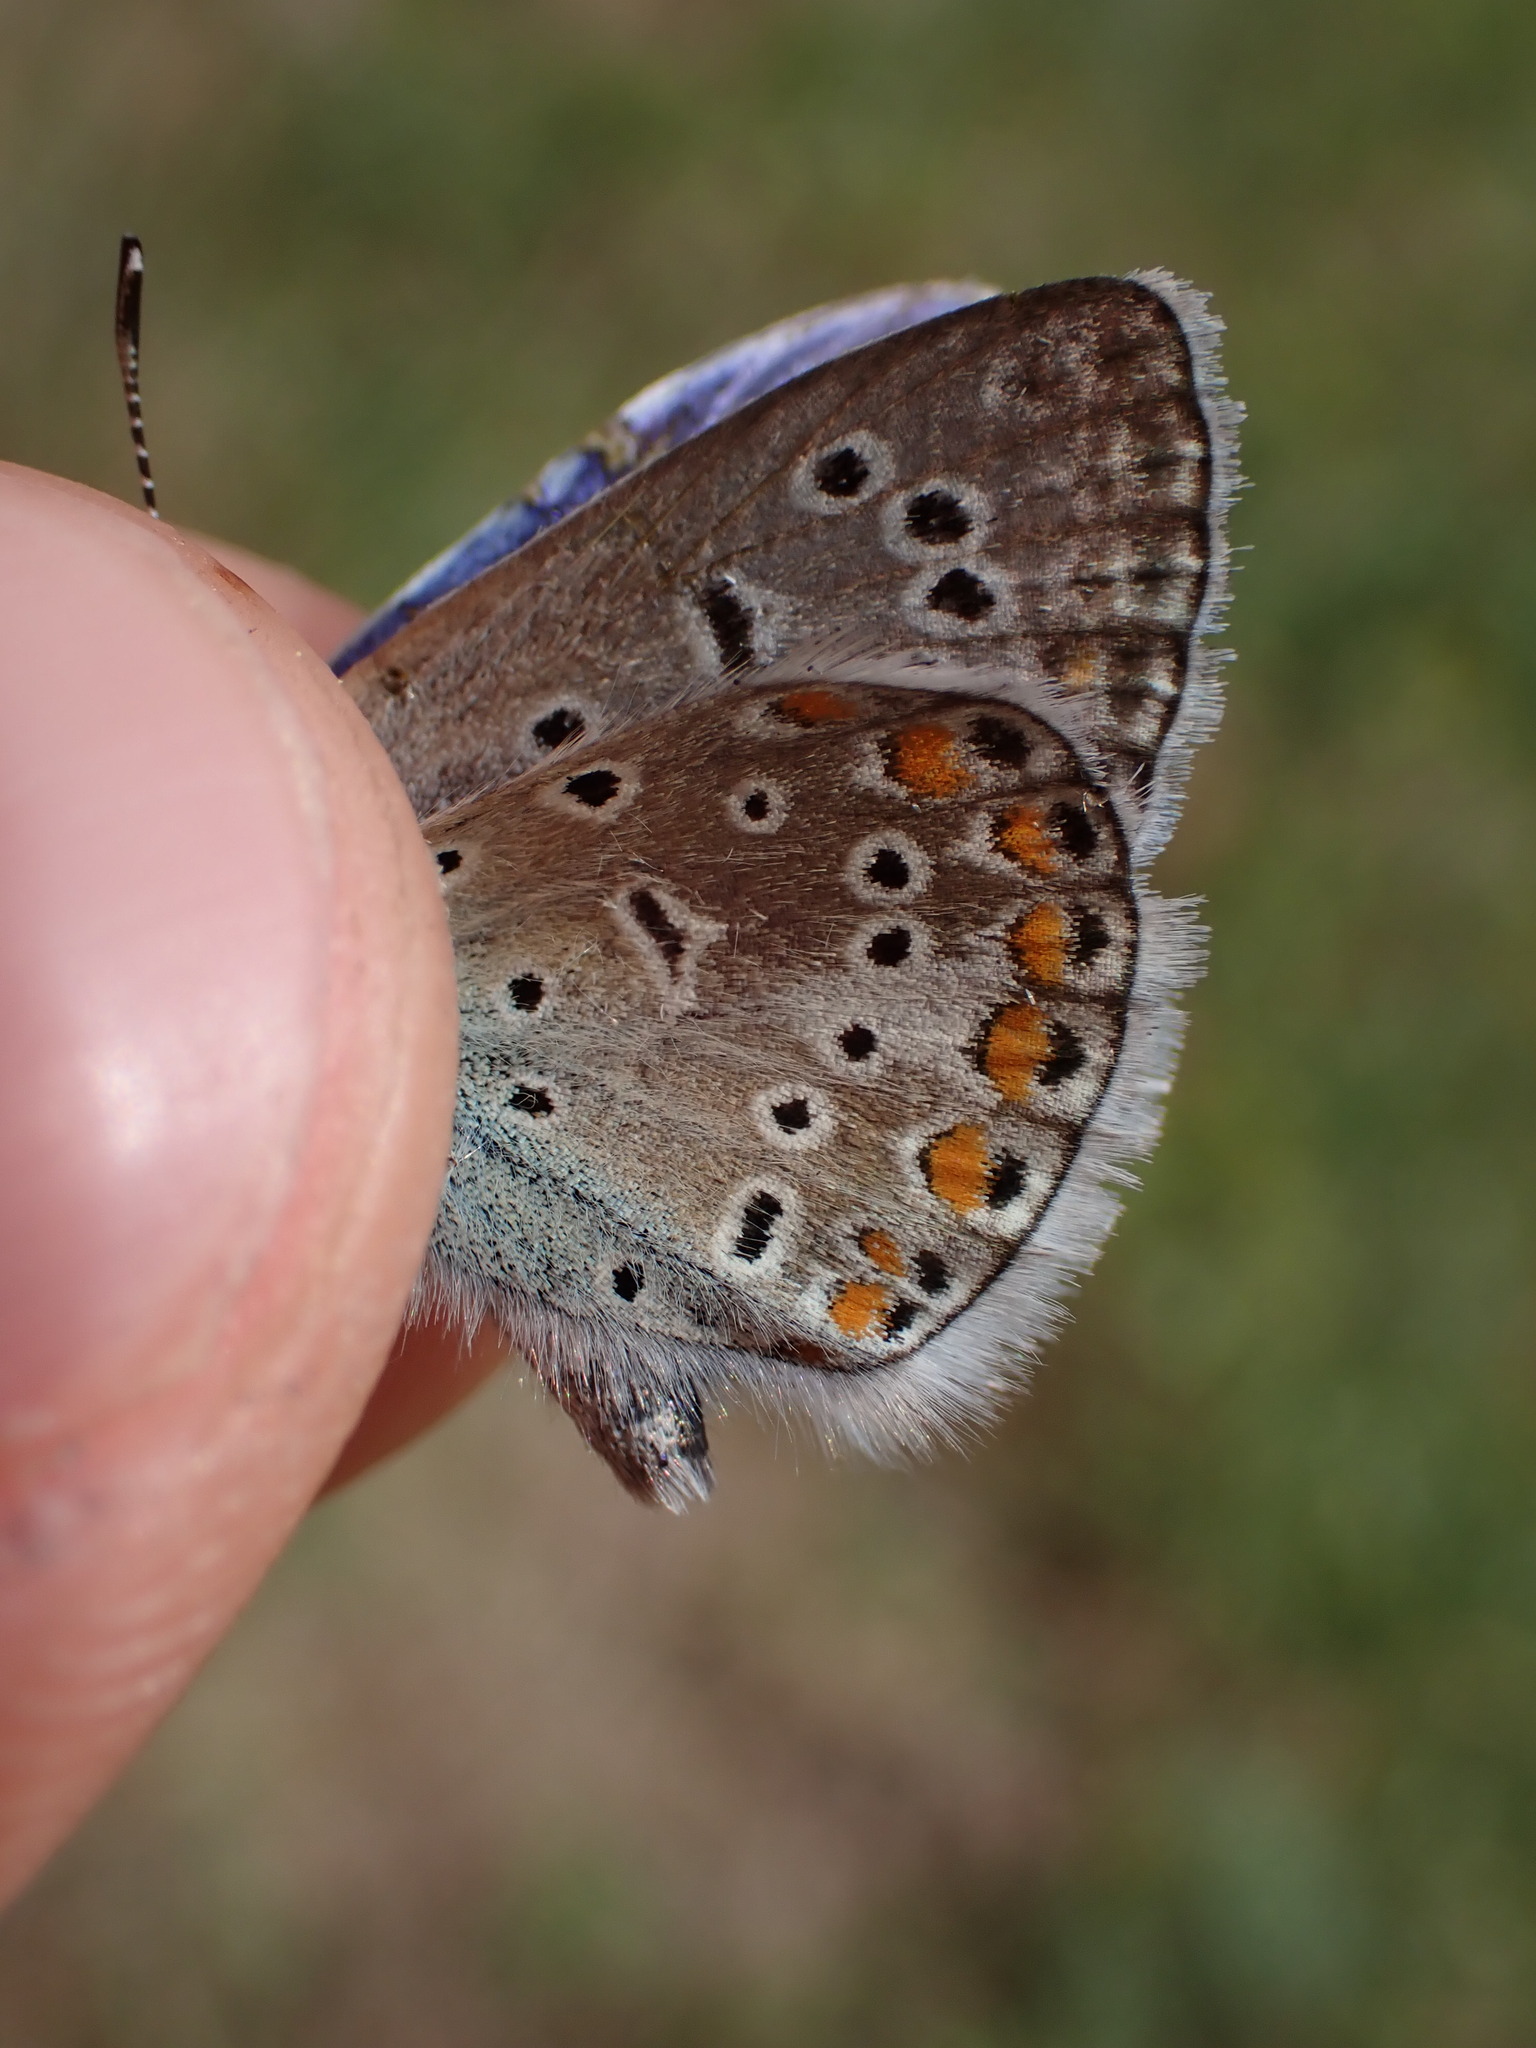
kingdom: Animalia
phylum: Arthropoda
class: Insecta
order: Lepidoptera
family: Lycaenidae
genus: Polyommatus
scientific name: Polyommatus icarus
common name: Common blue
